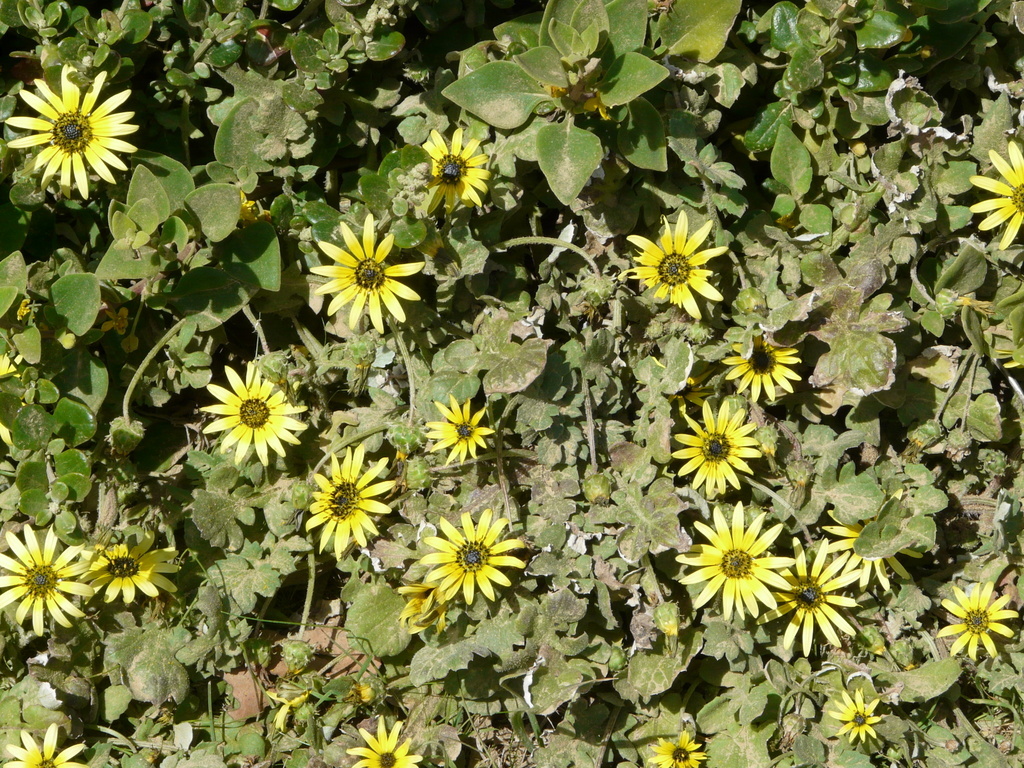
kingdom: Plantae
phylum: Tracheophyta
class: Magnoliopsida
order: Asterales
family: Asteraceae
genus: Arctotheca
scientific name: Arctotheca calendula
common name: Capeweed
